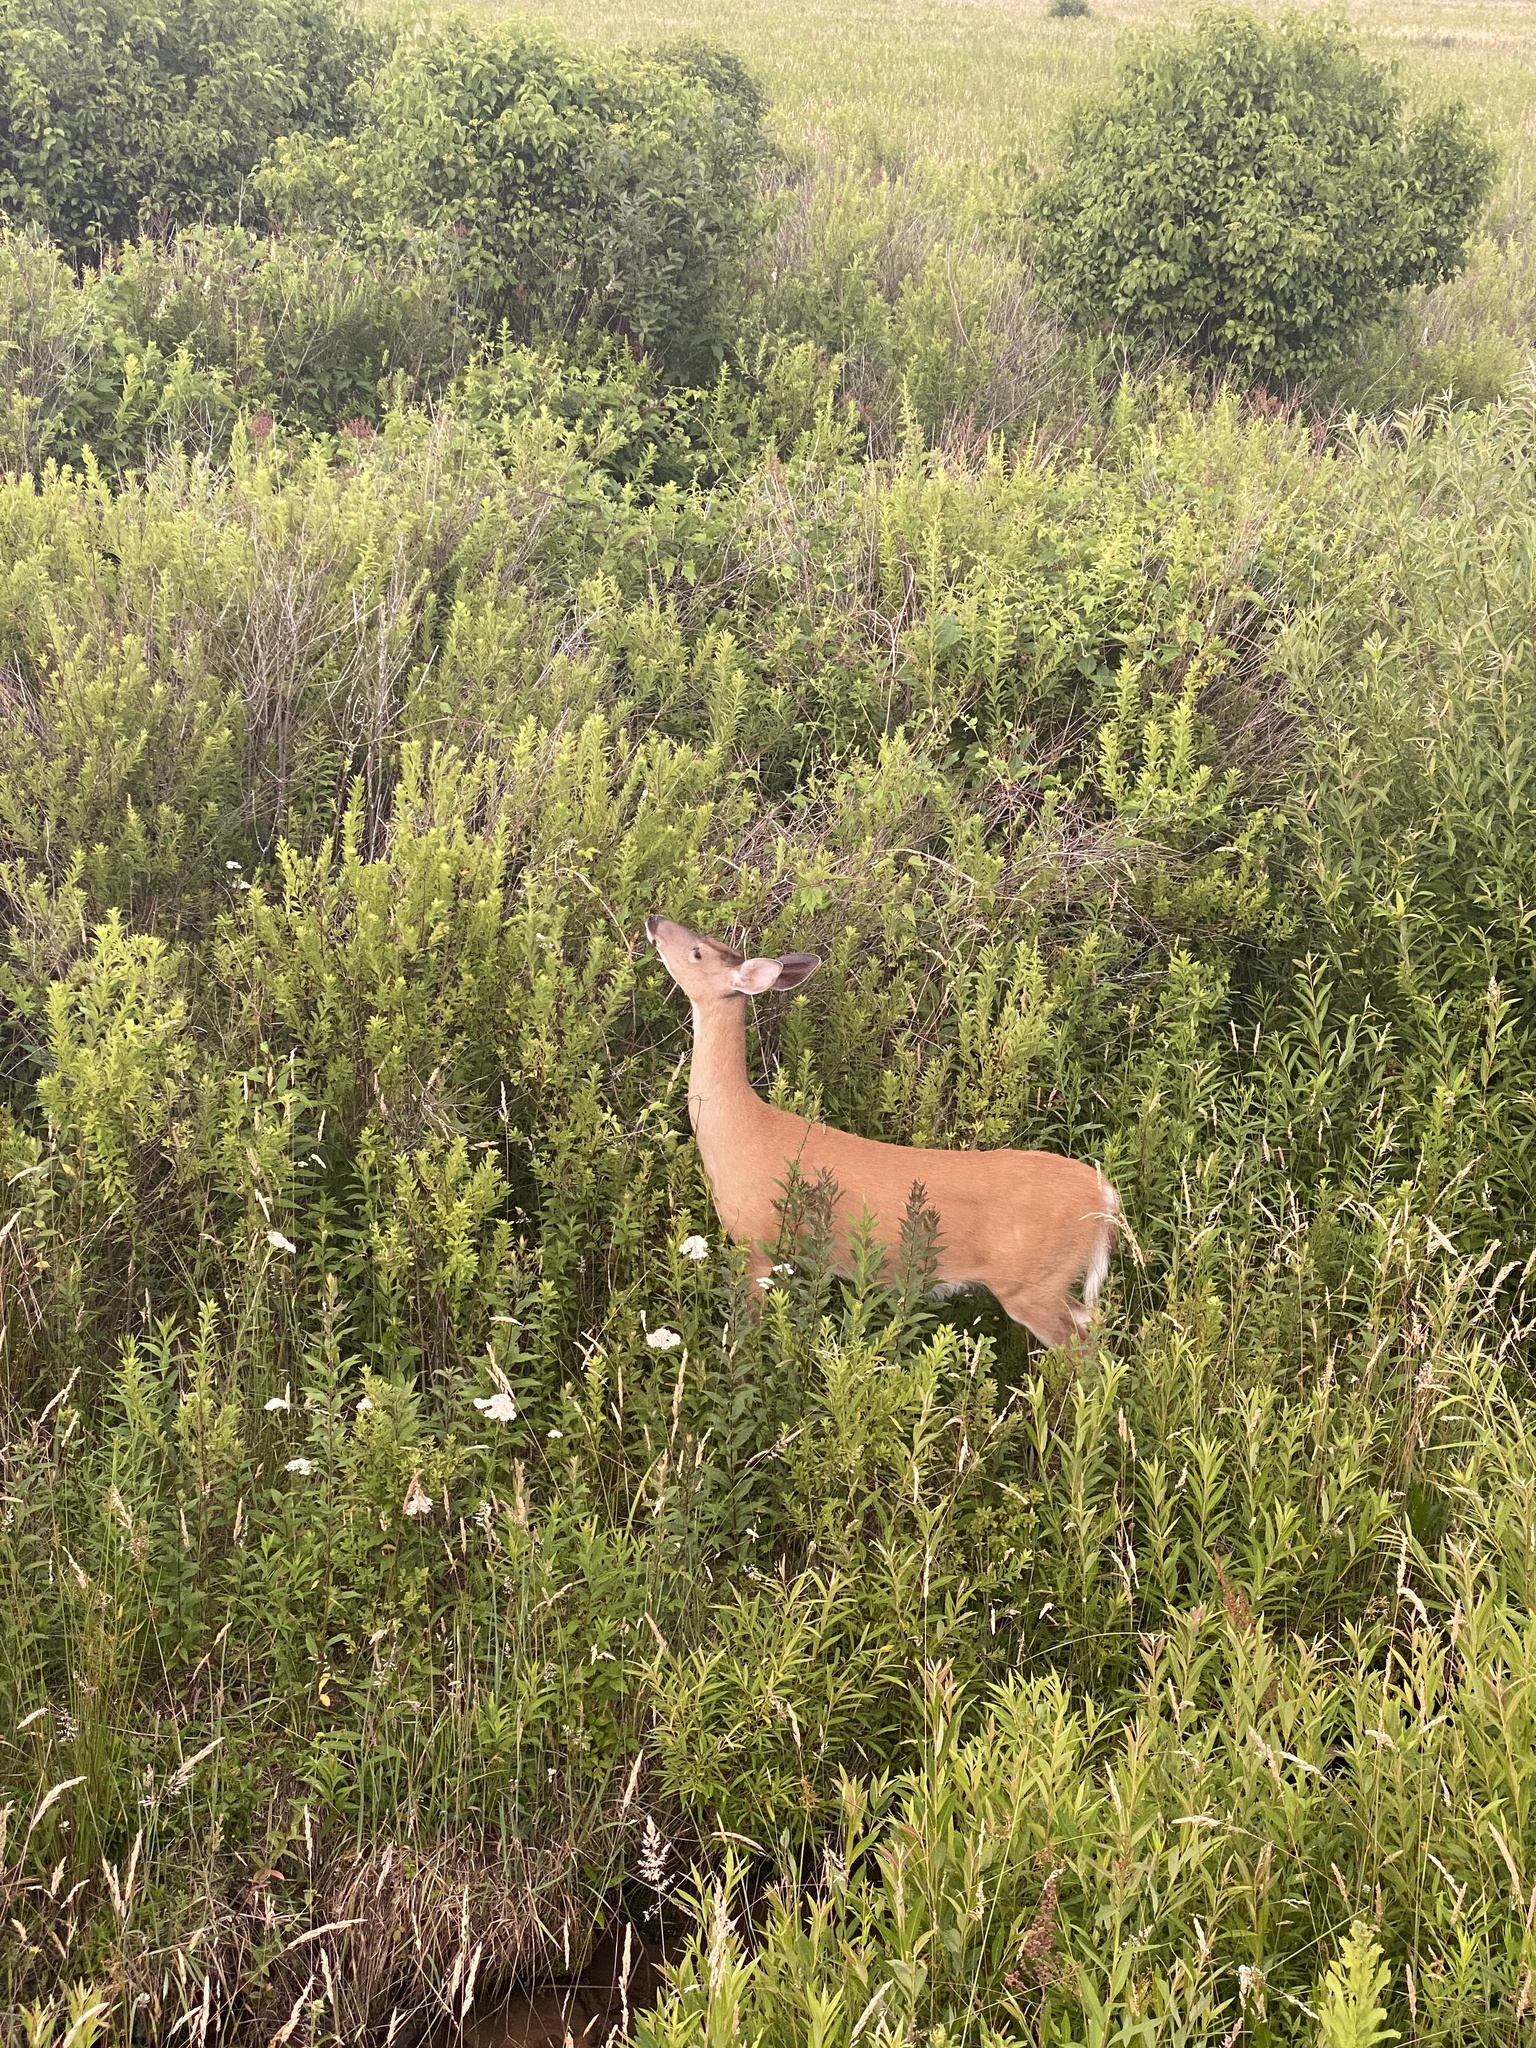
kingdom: Animalia
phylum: Chordata
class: Mammalia
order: Artiodactyla
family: Cervidae
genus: Odocoileus
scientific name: Odocoileus virginianus
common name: White-tailed deer
